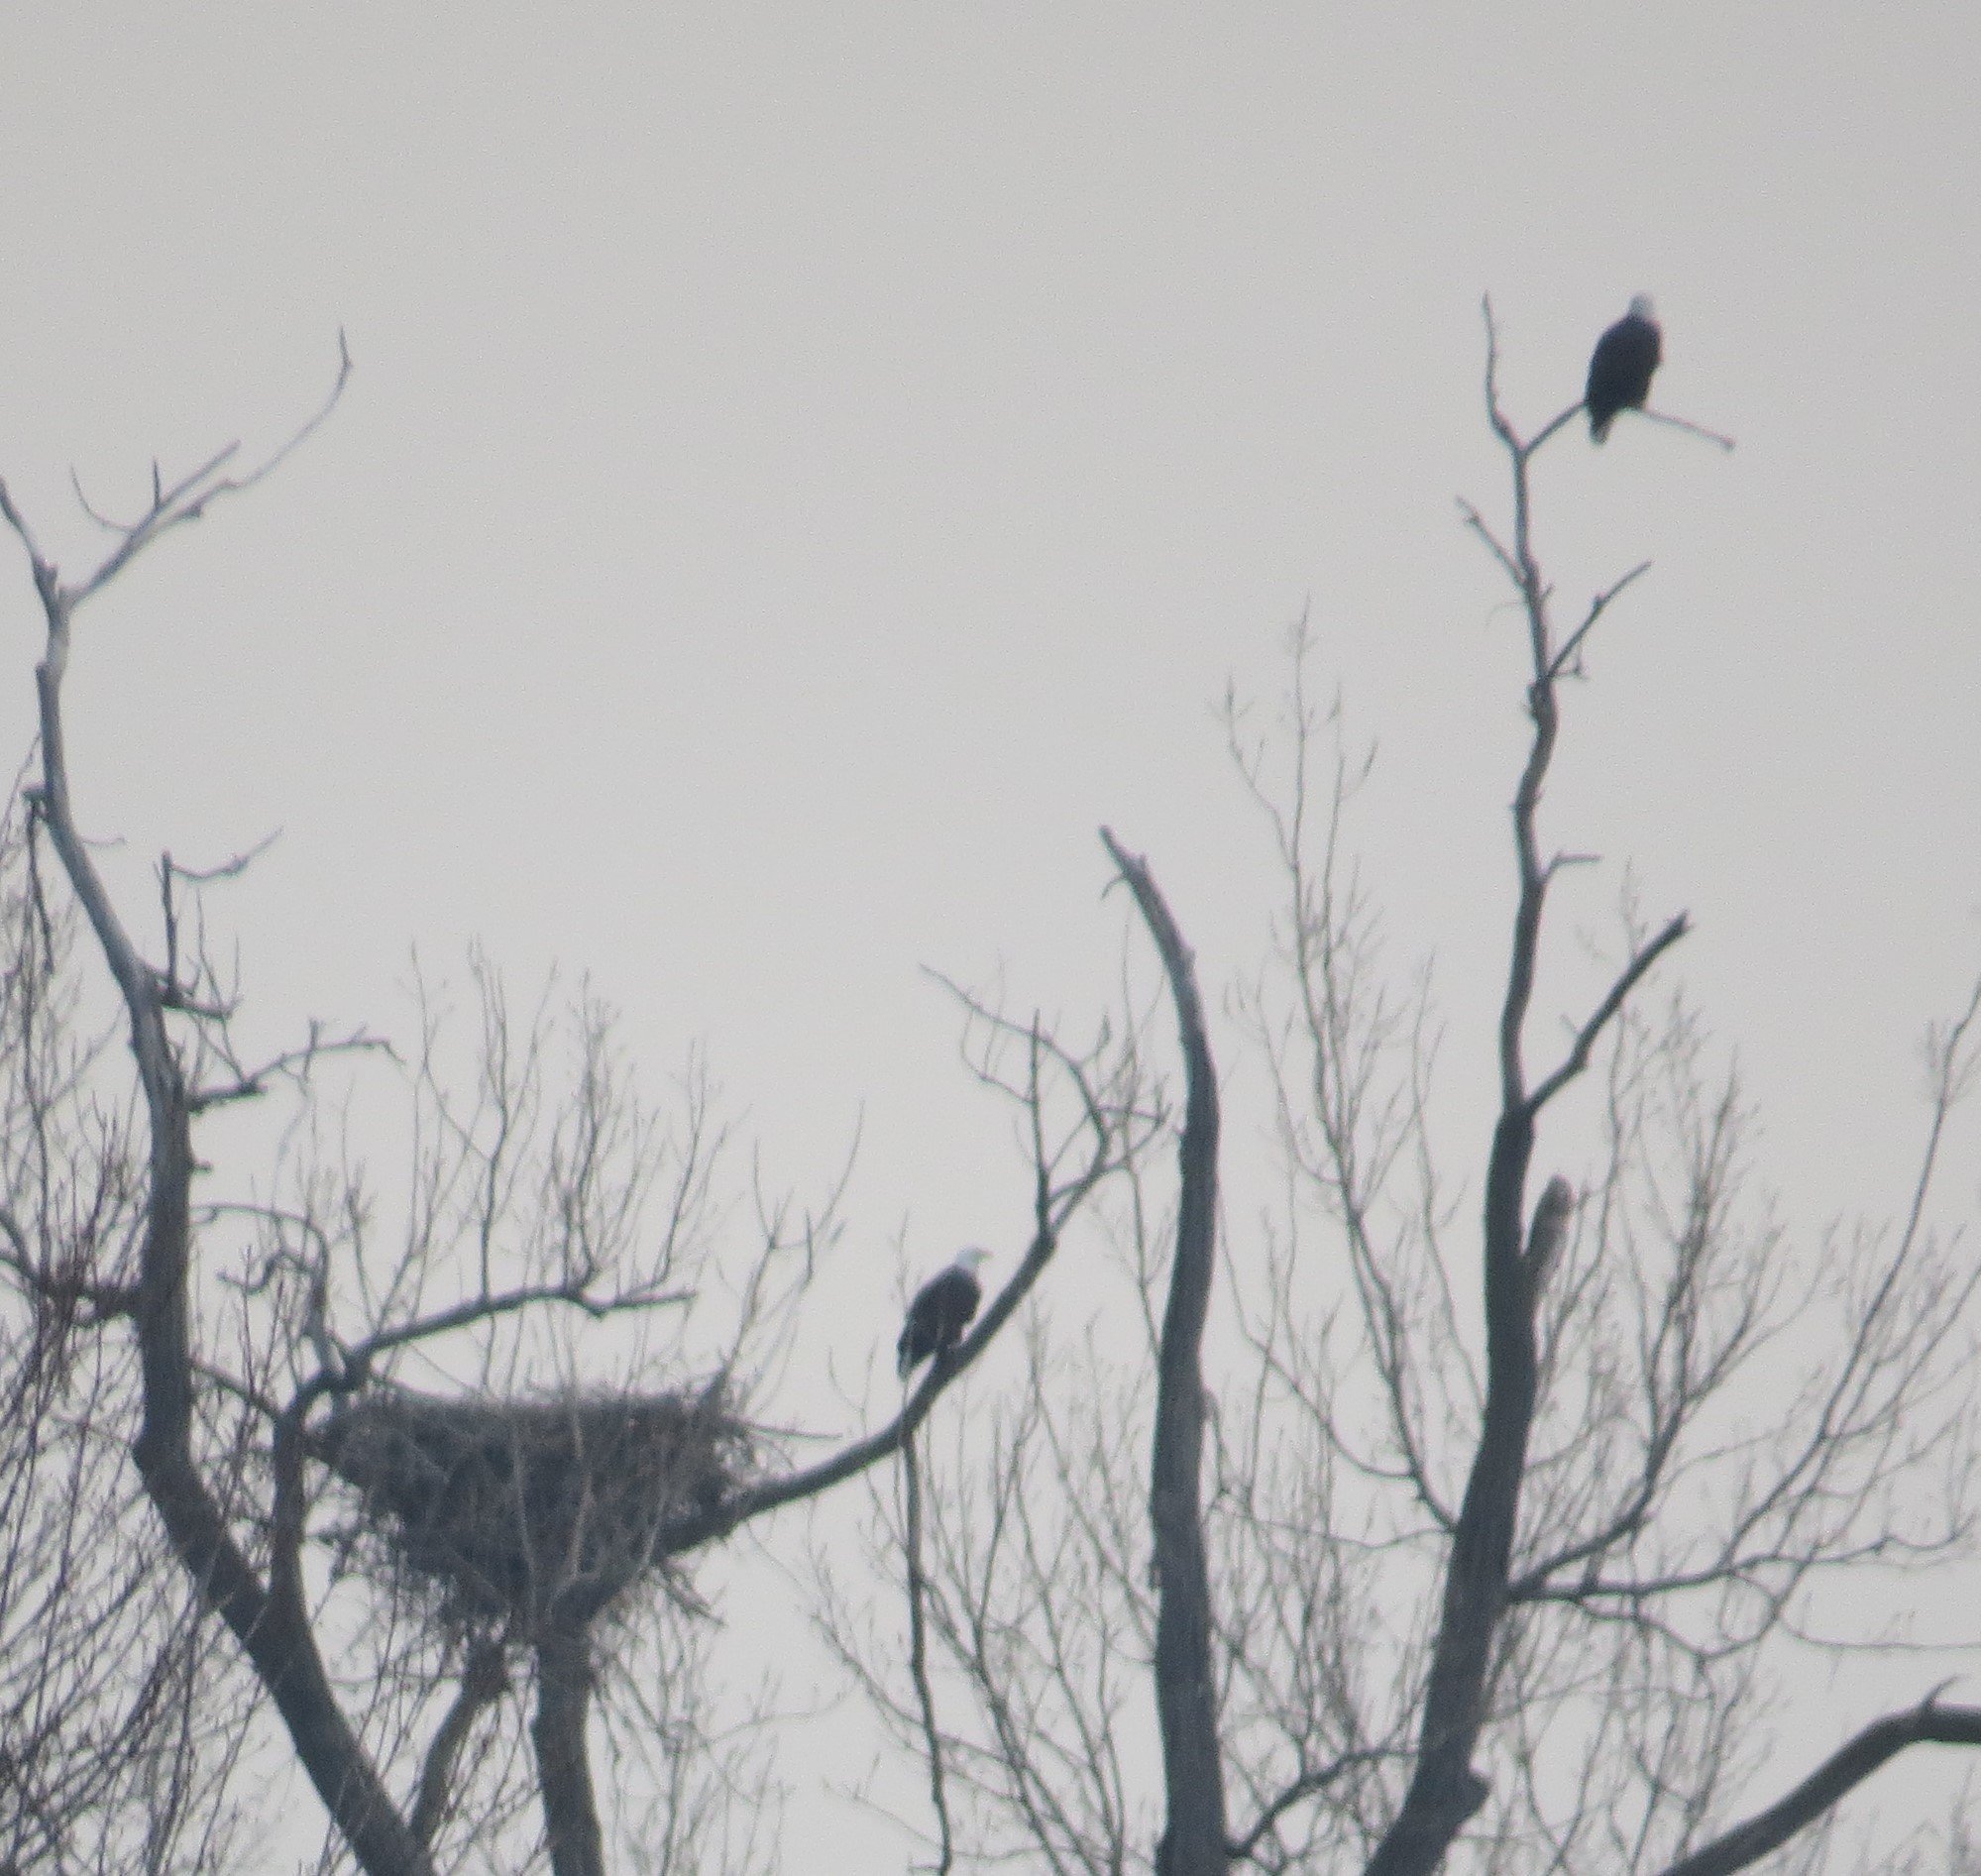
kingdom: Animalia
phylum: Chordata
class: Aves
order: Accipitriformes
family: Accipitridae
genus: Haliaeetus
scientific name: Haliaeetus leucocephalus
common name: Bald eagle
